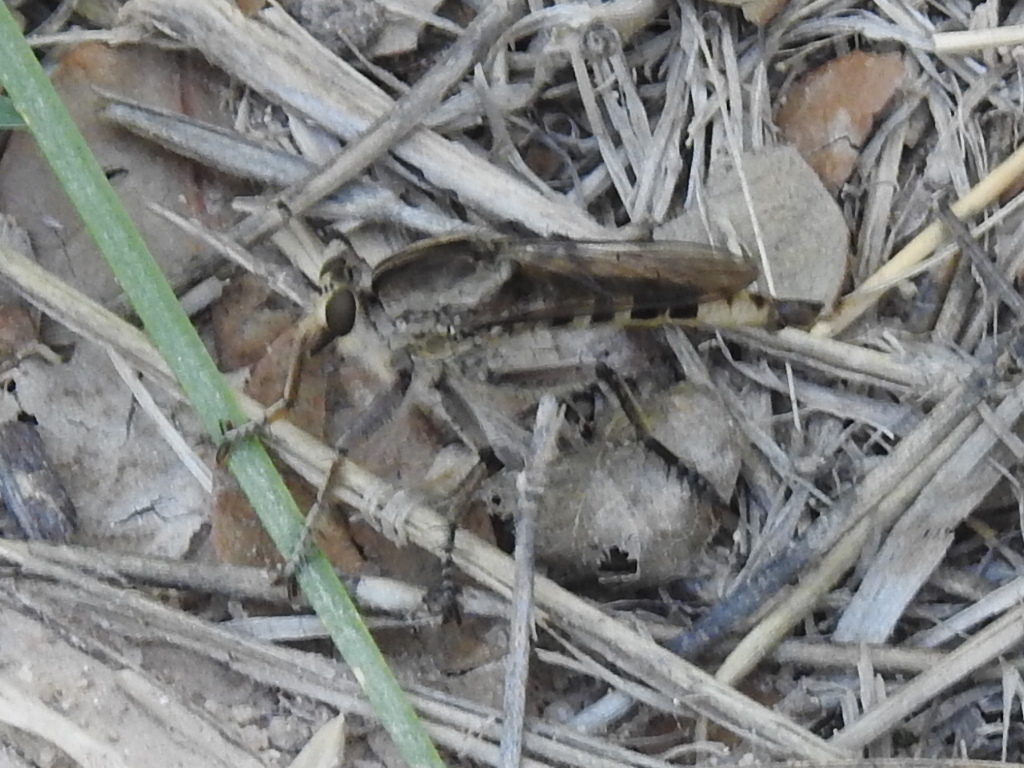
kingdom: Animalia
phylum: Arthropoda
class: Insecta
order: Diptera
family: Asilidae
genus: Triorla
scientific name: Triorla interrupta
